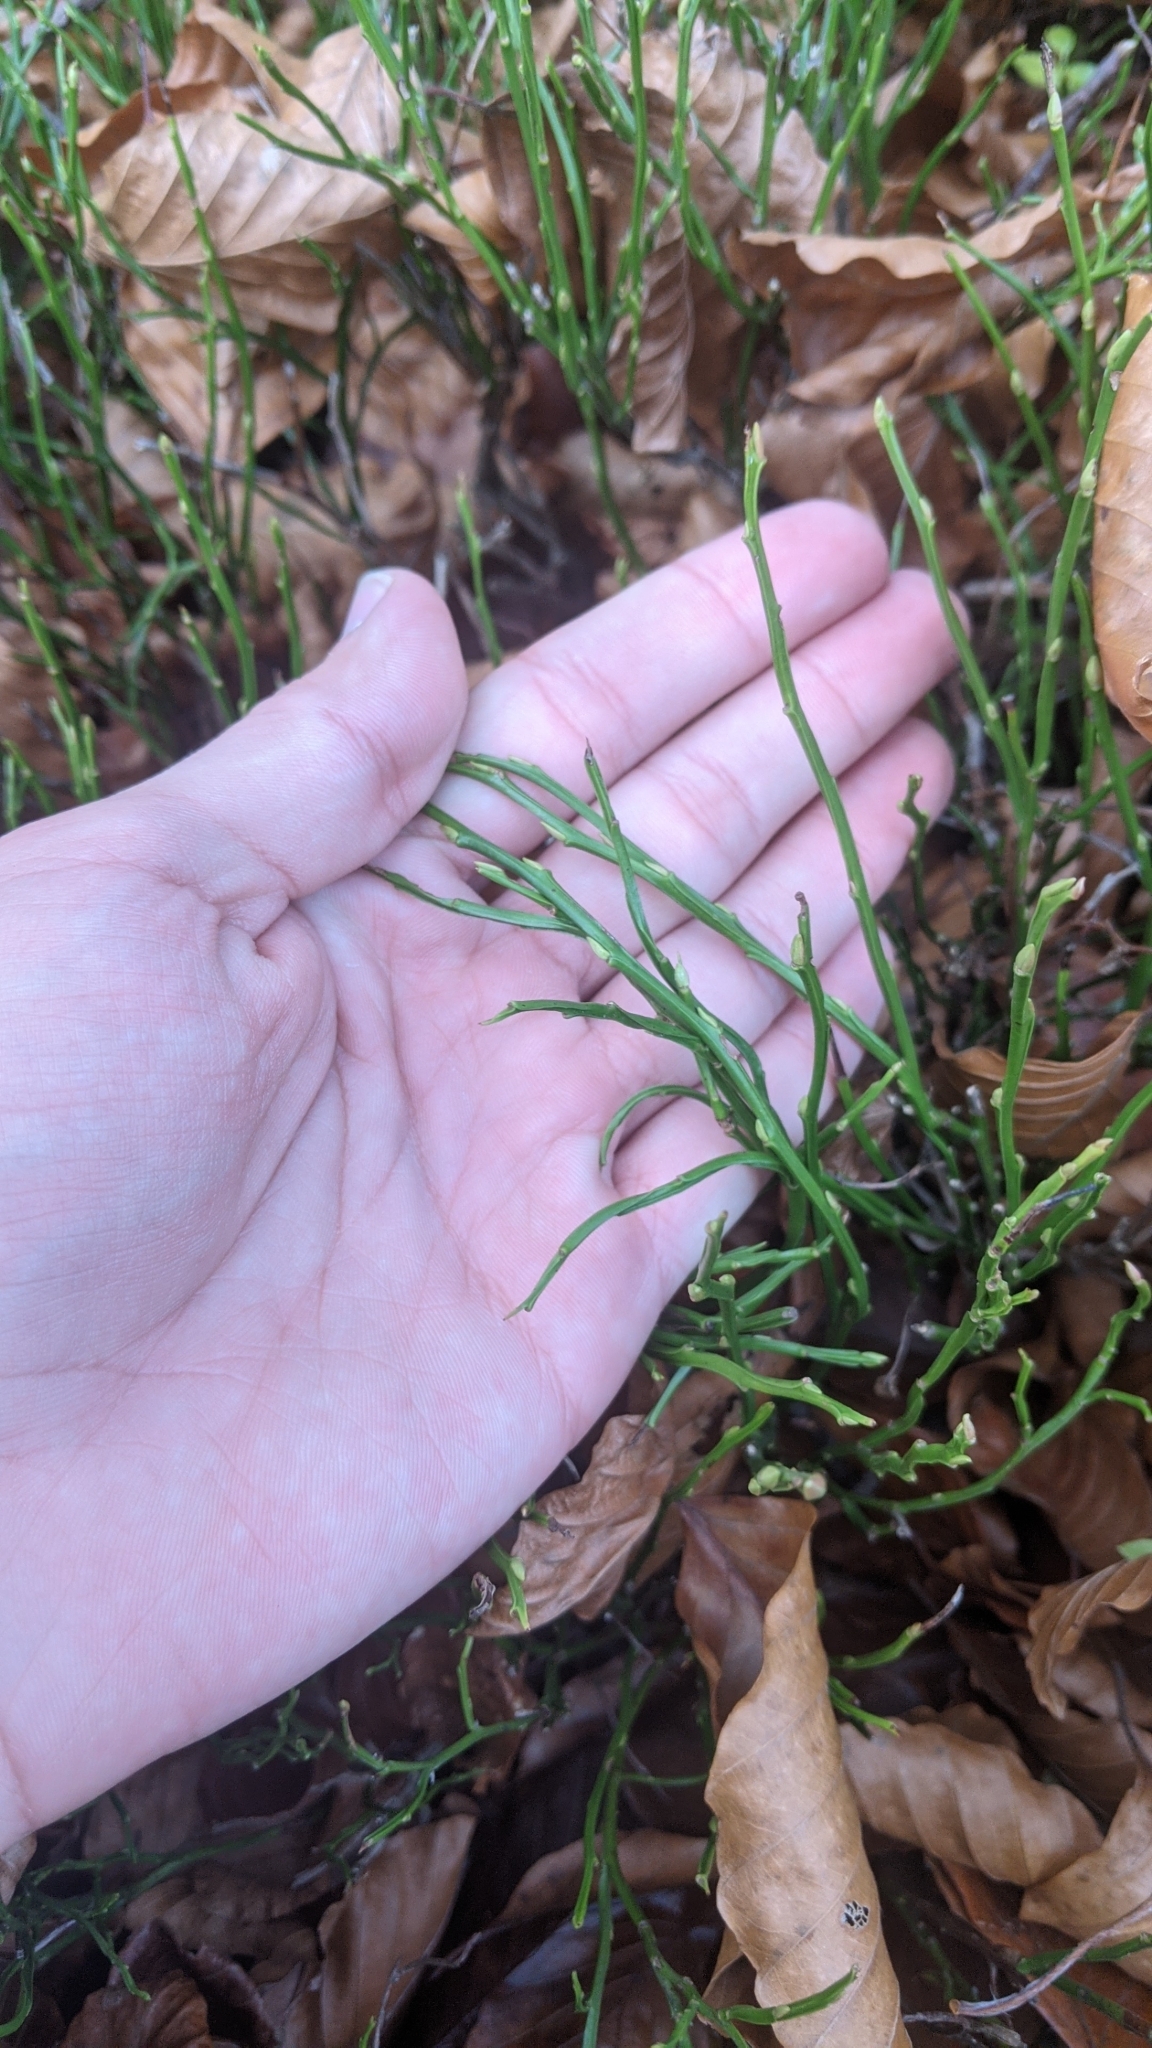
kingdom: Plantae
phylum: Tracheophyta
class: Magnoliopsida
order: Ericales
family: Ericaceae
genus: Vaccinium
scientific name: Vaccinium myrtillus
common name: Bilberry
